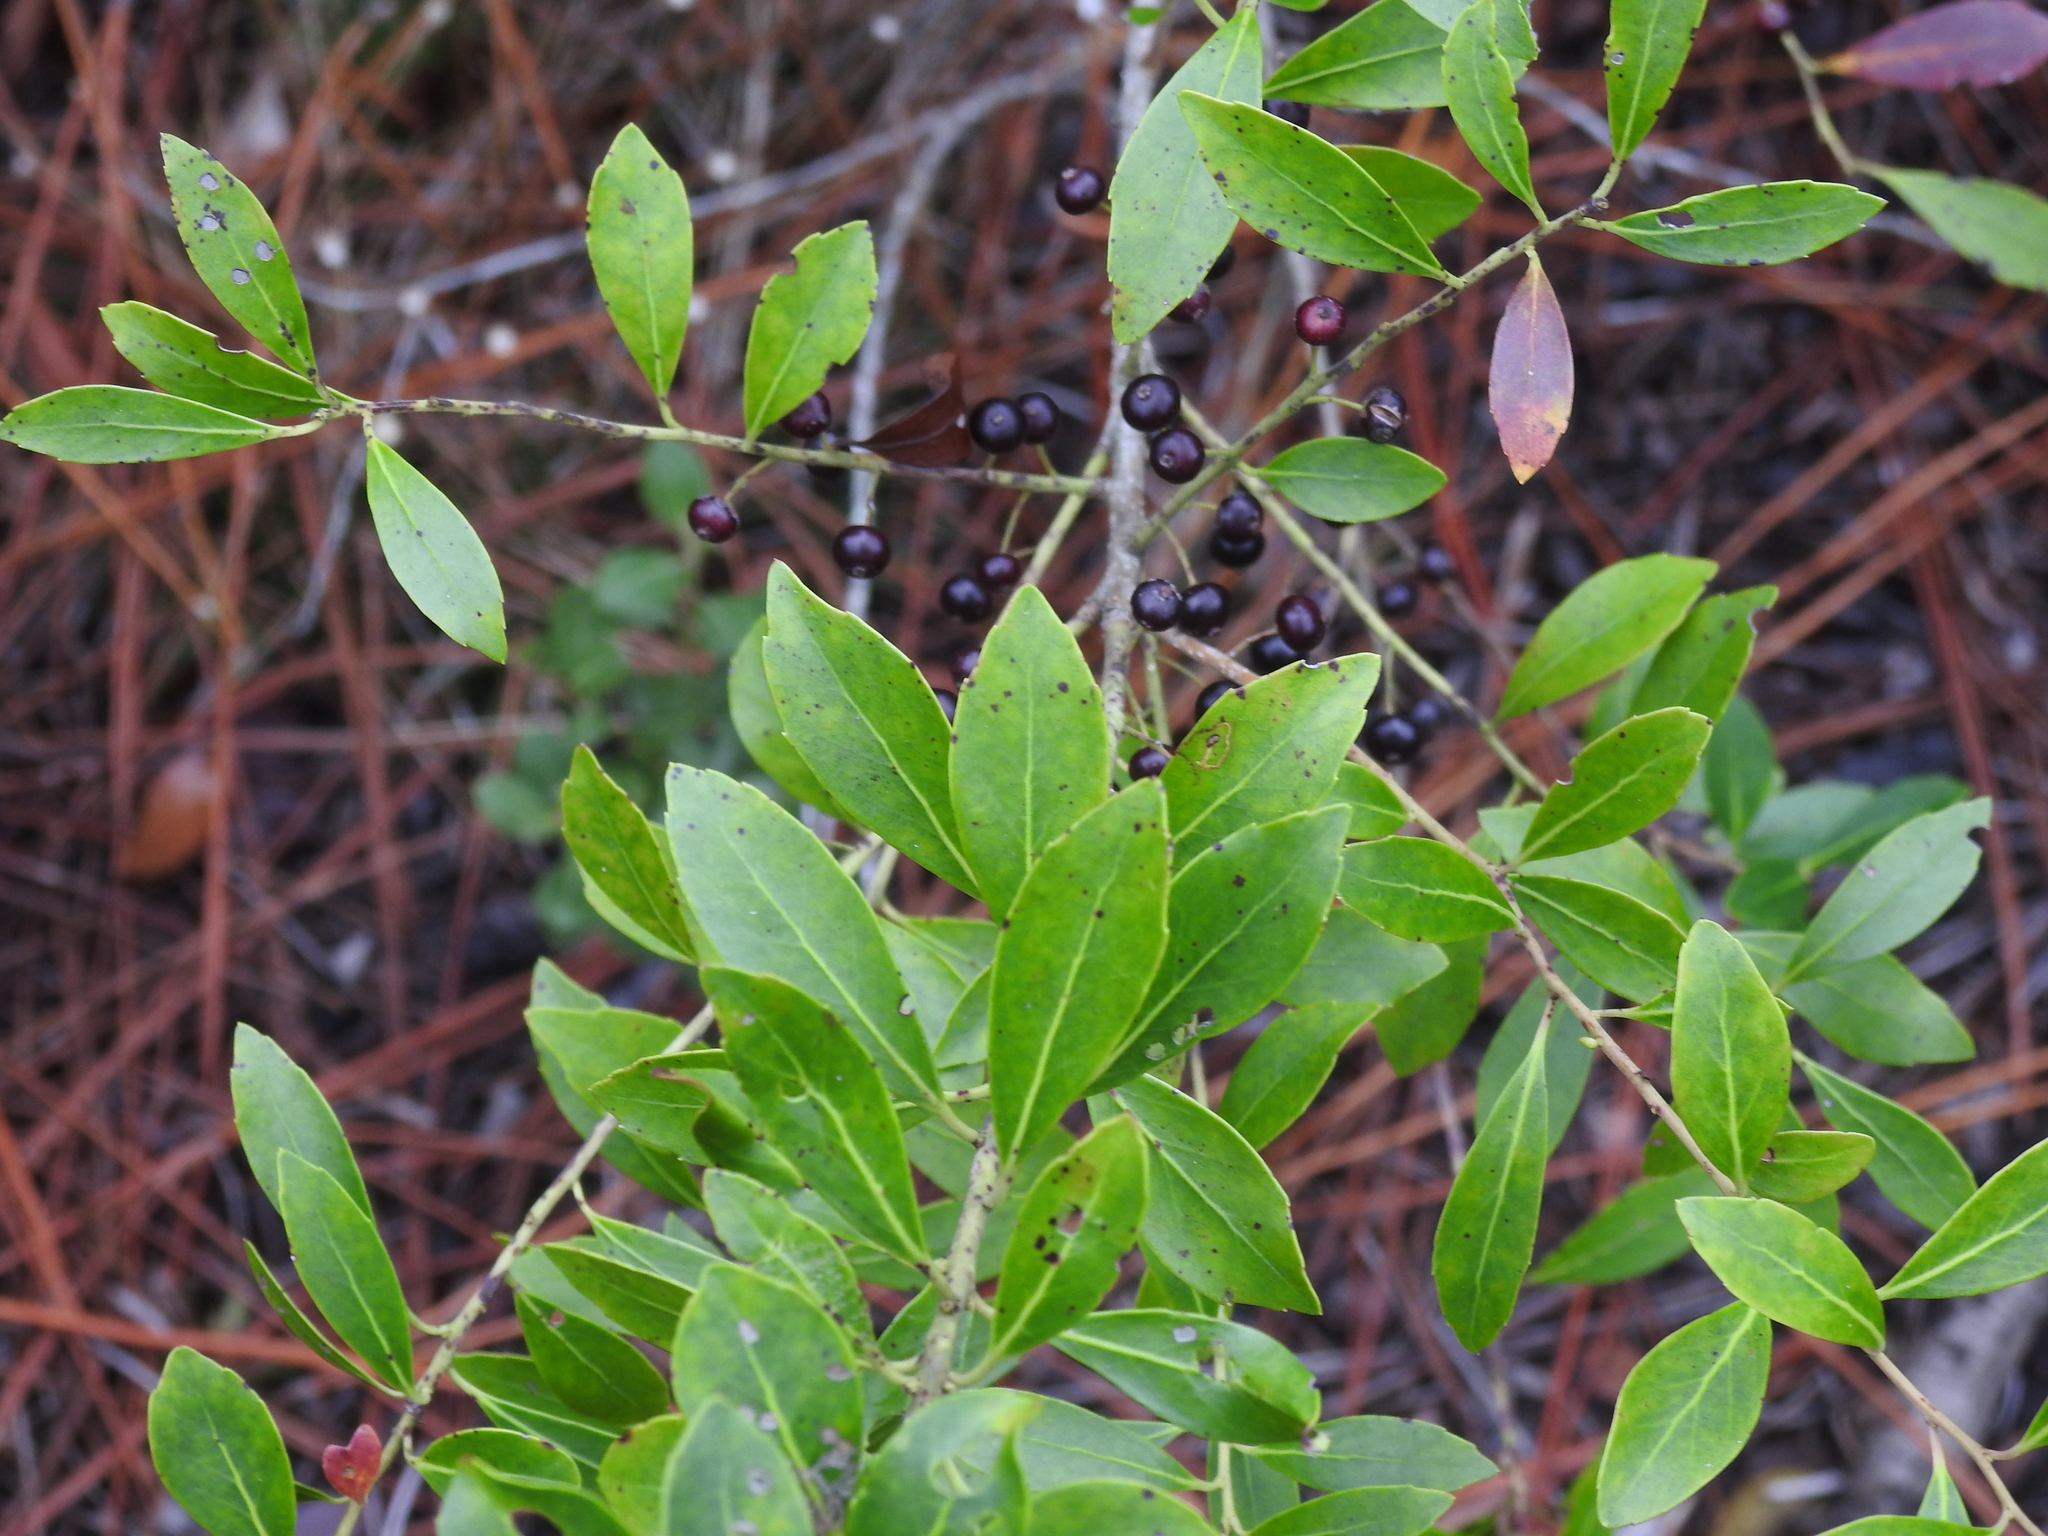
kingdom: Plantae
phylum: Tracheophyta
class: Magnoliopsida
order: Aquifoliales
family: Aquifoliaceae
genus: Ilex
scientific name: Ilex glabra
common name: Bitter gallberry
